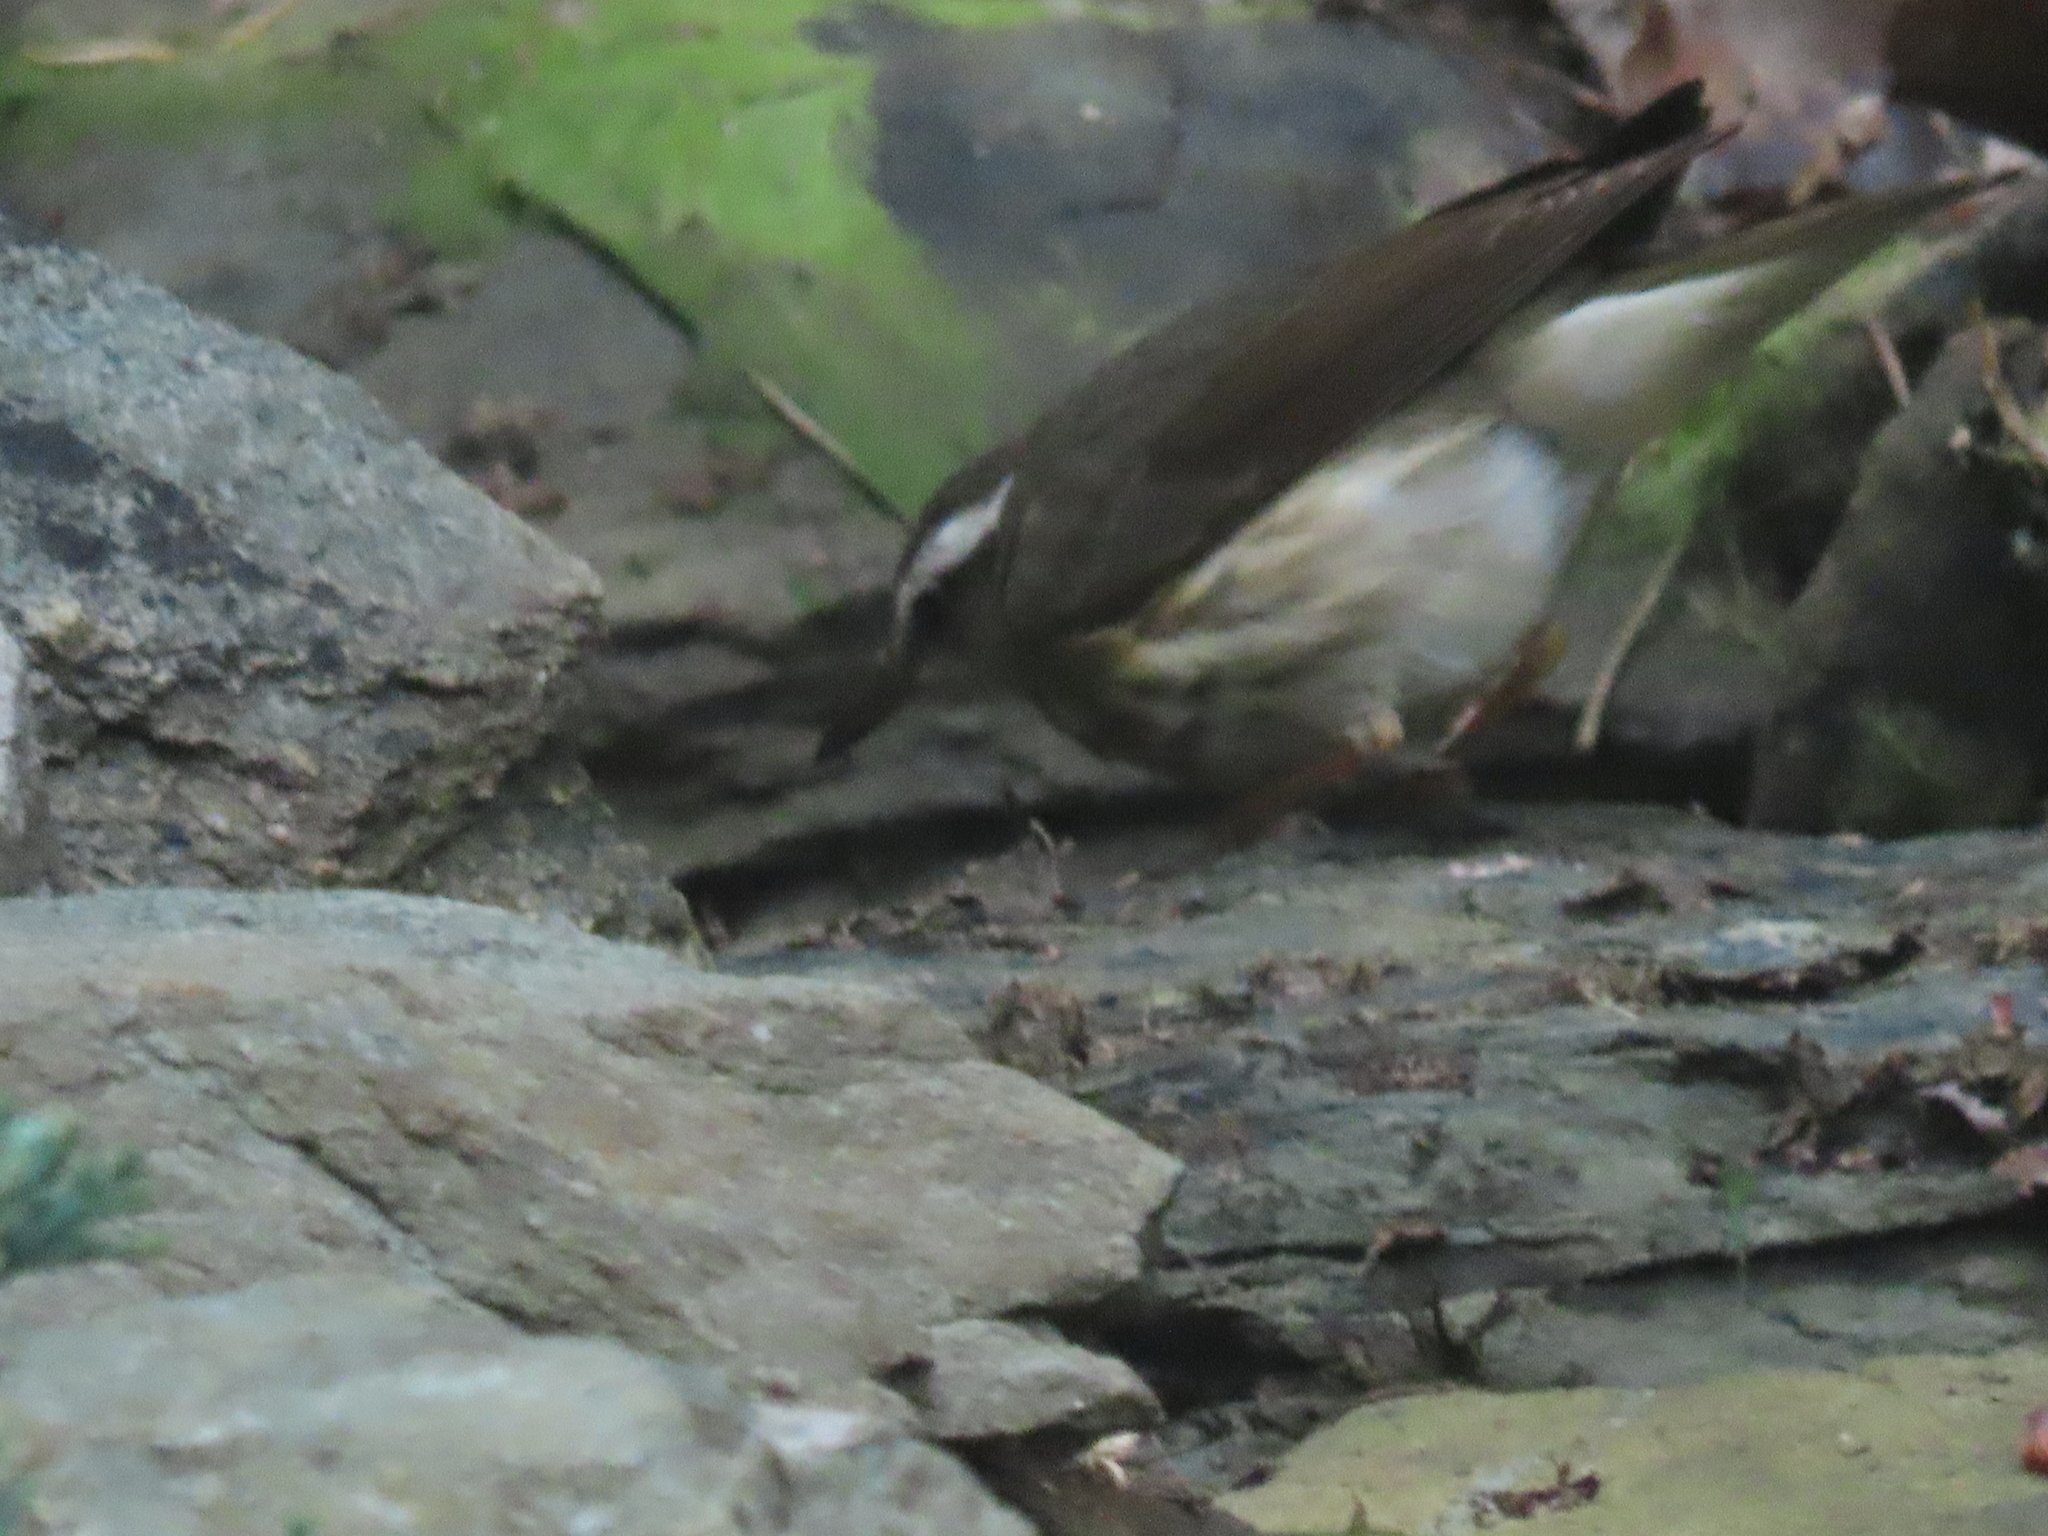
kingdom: Animalia
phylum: Chordata
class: Aves
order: Passeriformes
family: Parulidae
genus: Parkesia
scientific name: Parkesia motacilla
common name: Louisiana waterthrush
